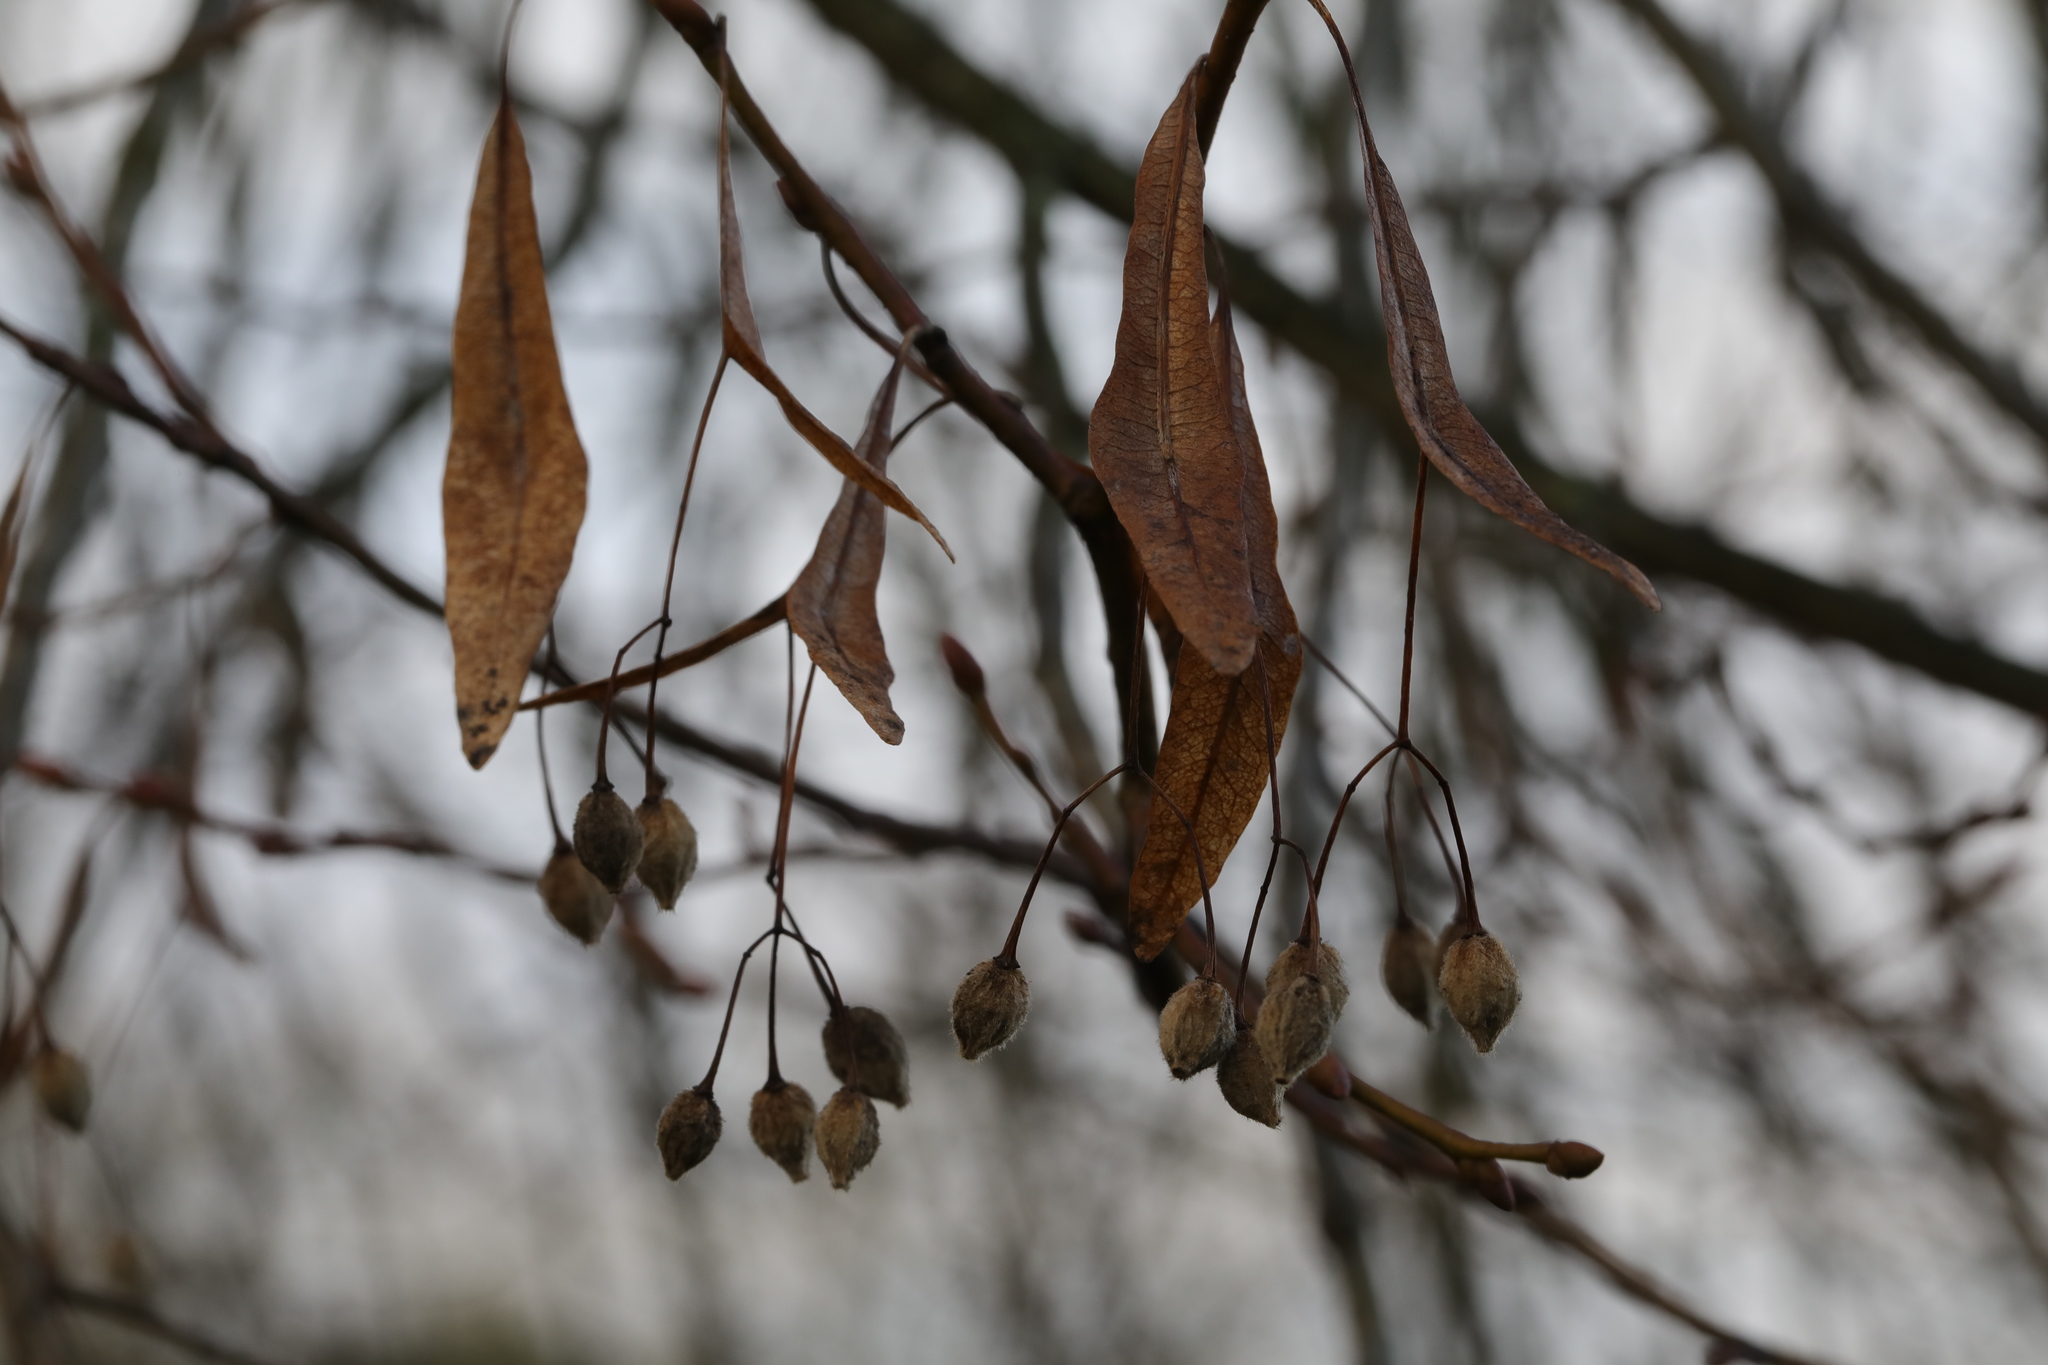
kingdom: Plantae
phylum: Tracheophyta
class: Magnoliopsida
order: Malvales
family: Malvaceae
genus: Tilia
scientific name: Tilia europaea
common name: European linden
